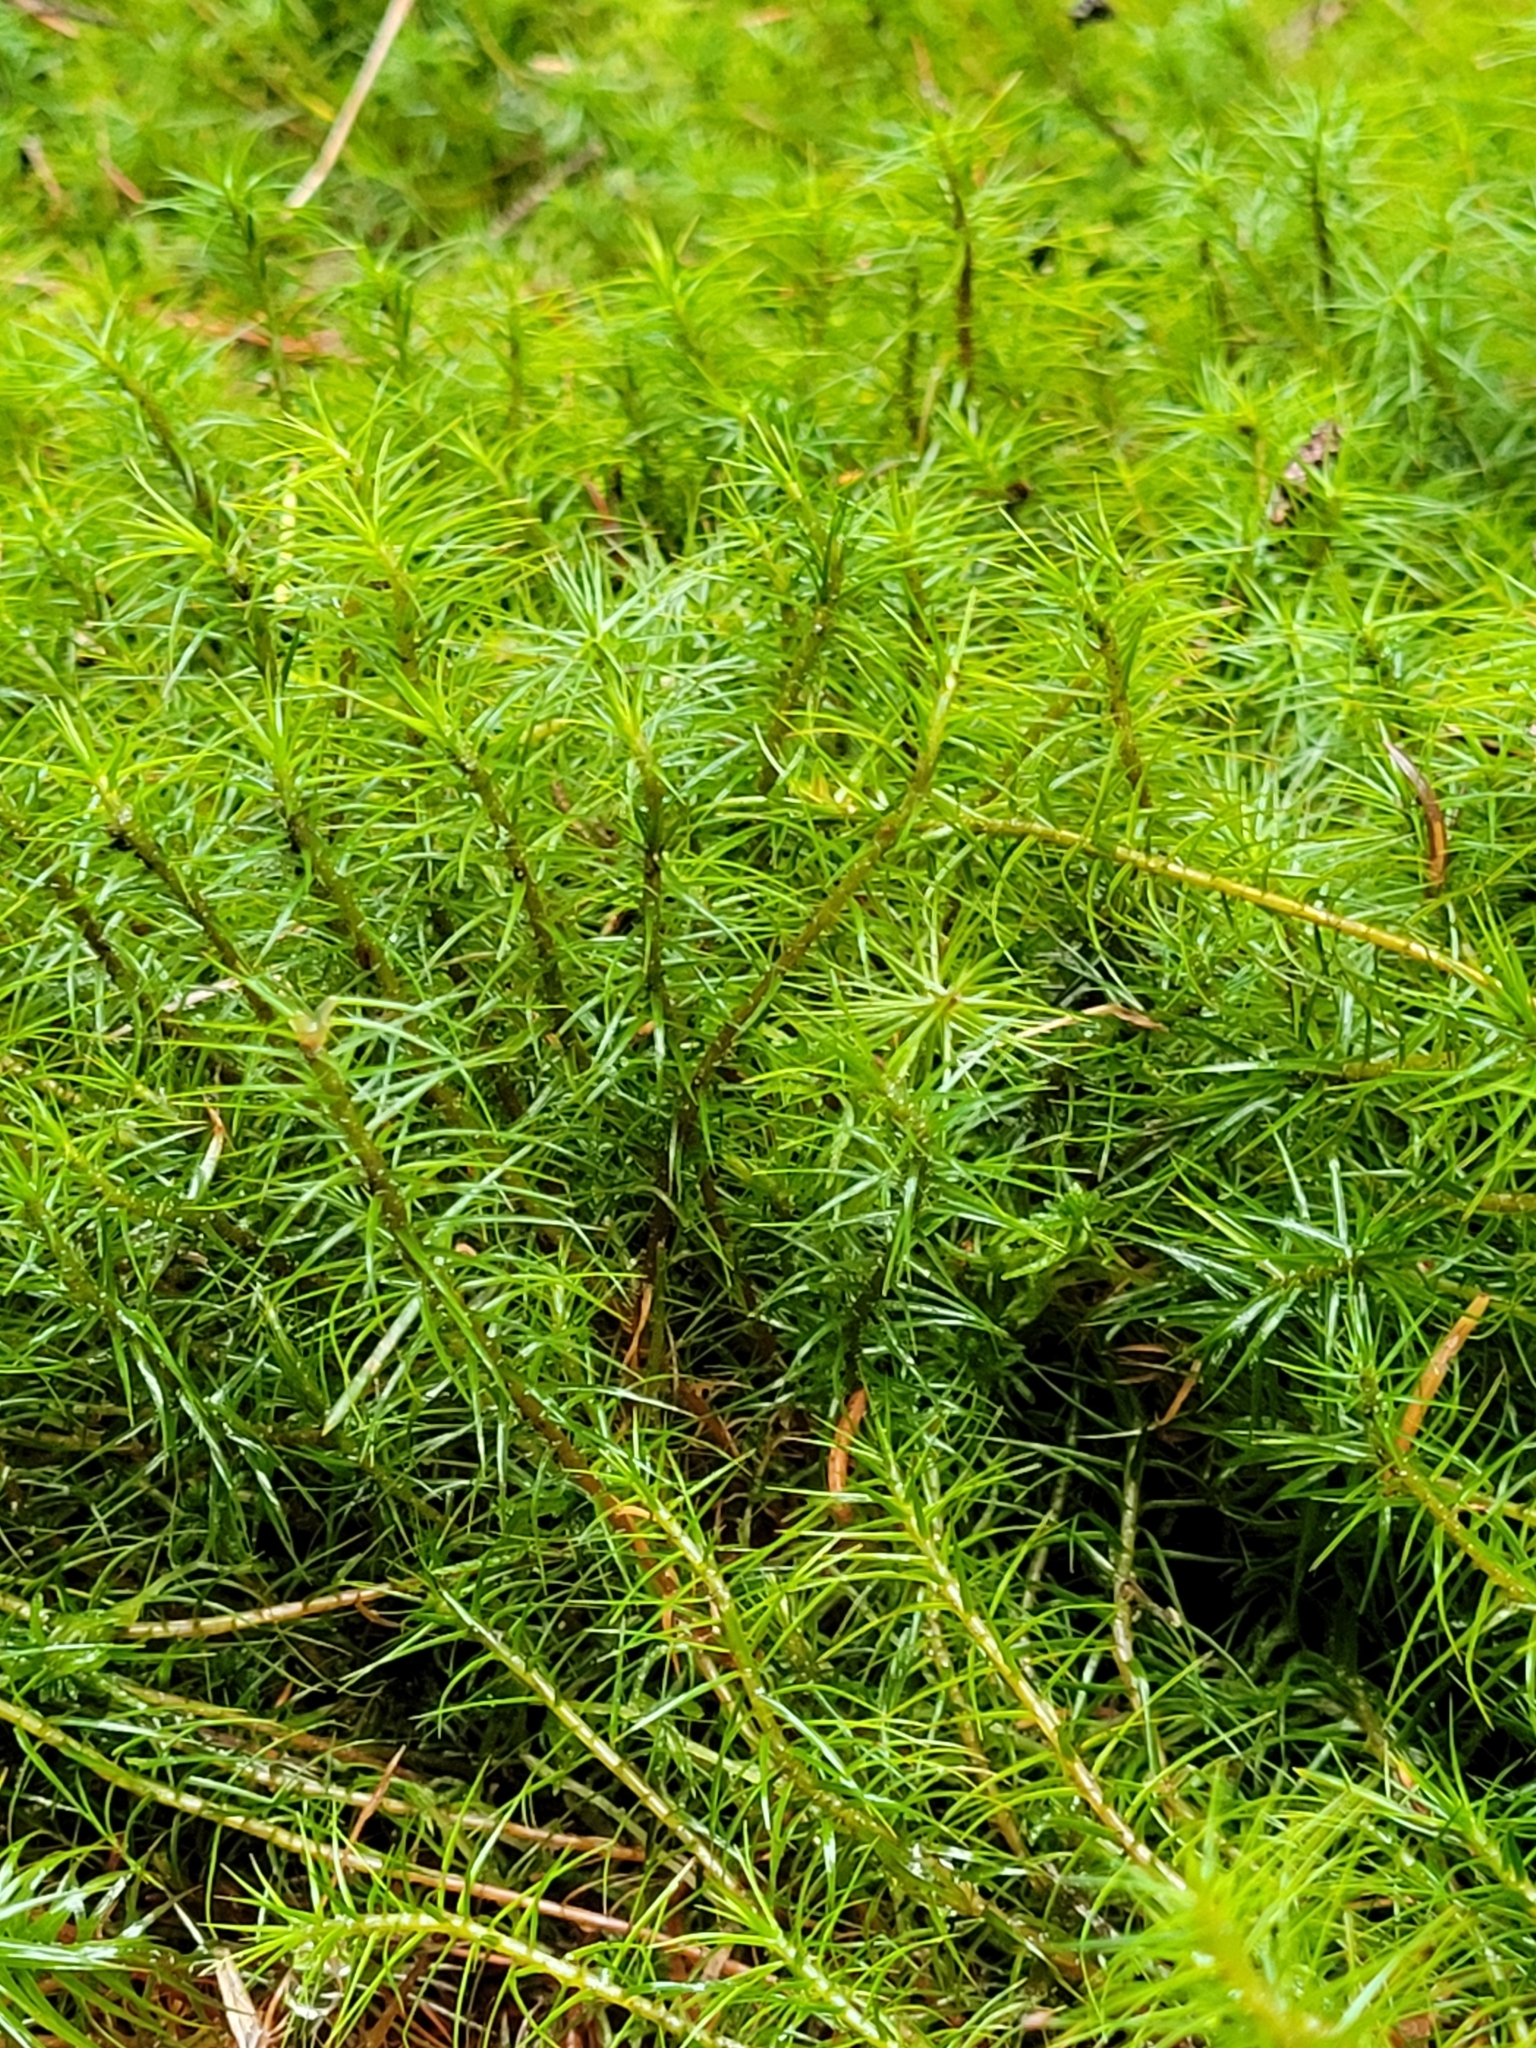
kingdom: Plantae
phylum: Bryophyta
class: Polytrichopsida
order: Polytrichales
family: Polytrichaceae
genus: Polytrichum
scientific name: Polytrichum commune
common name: Common haircap
